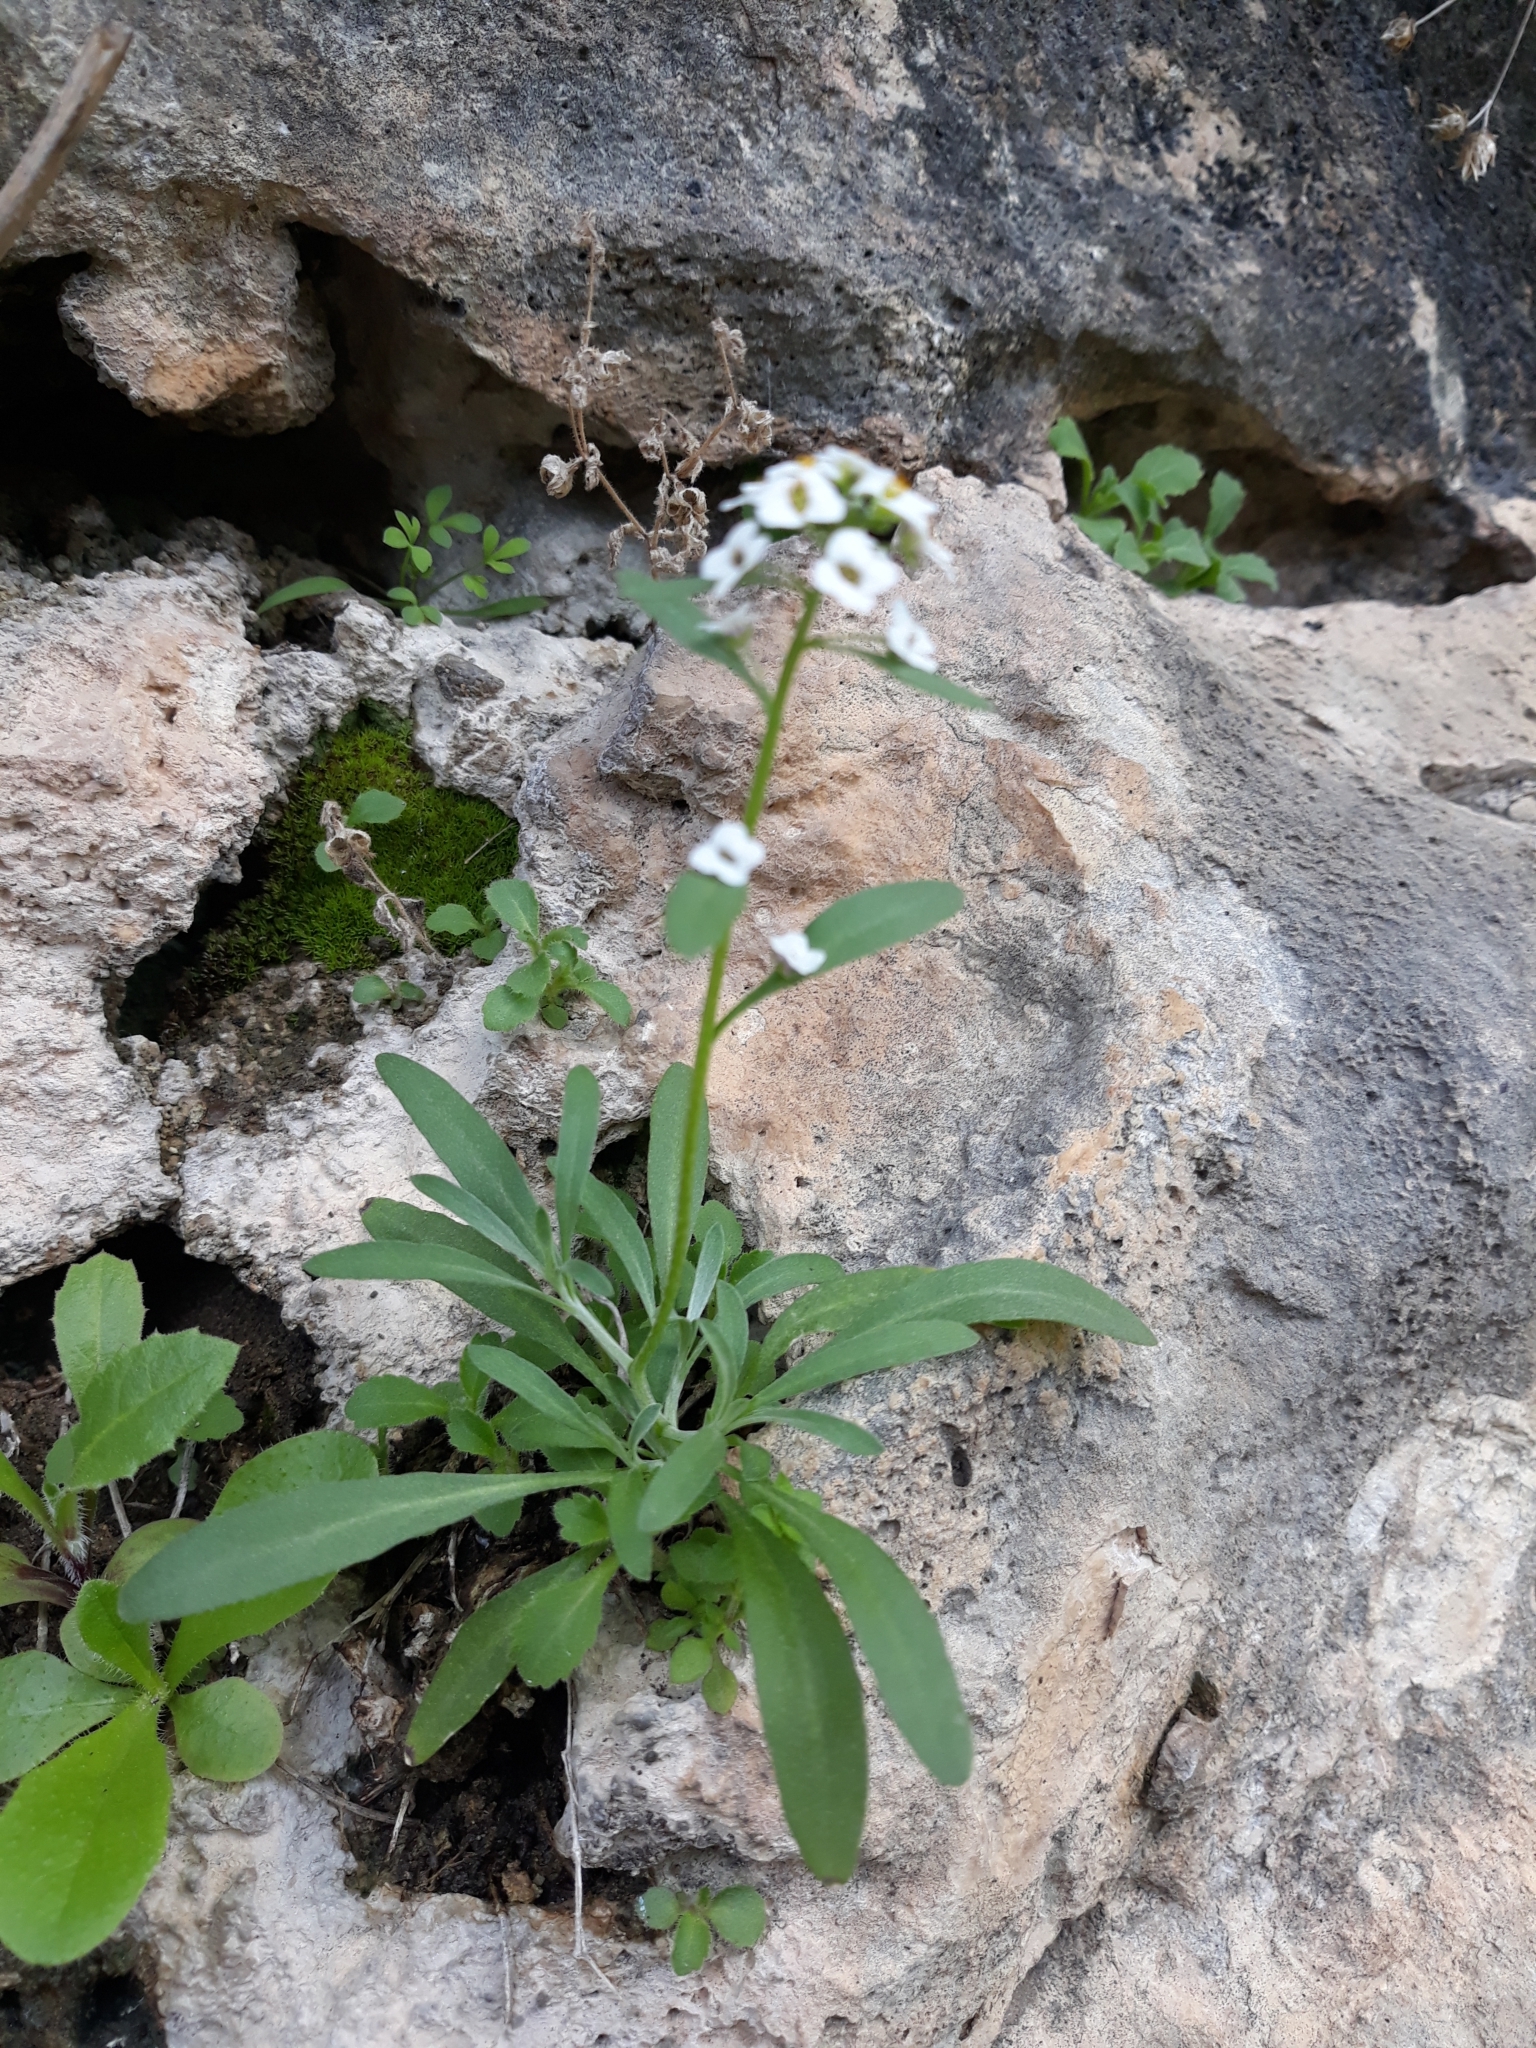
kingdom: Plantae
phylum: Tracheophyta
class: Magnoliopsida
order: Brassicales
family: Brassicaceae
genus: Lobularia
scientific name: Lobularia maritima
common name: Sweet alison
